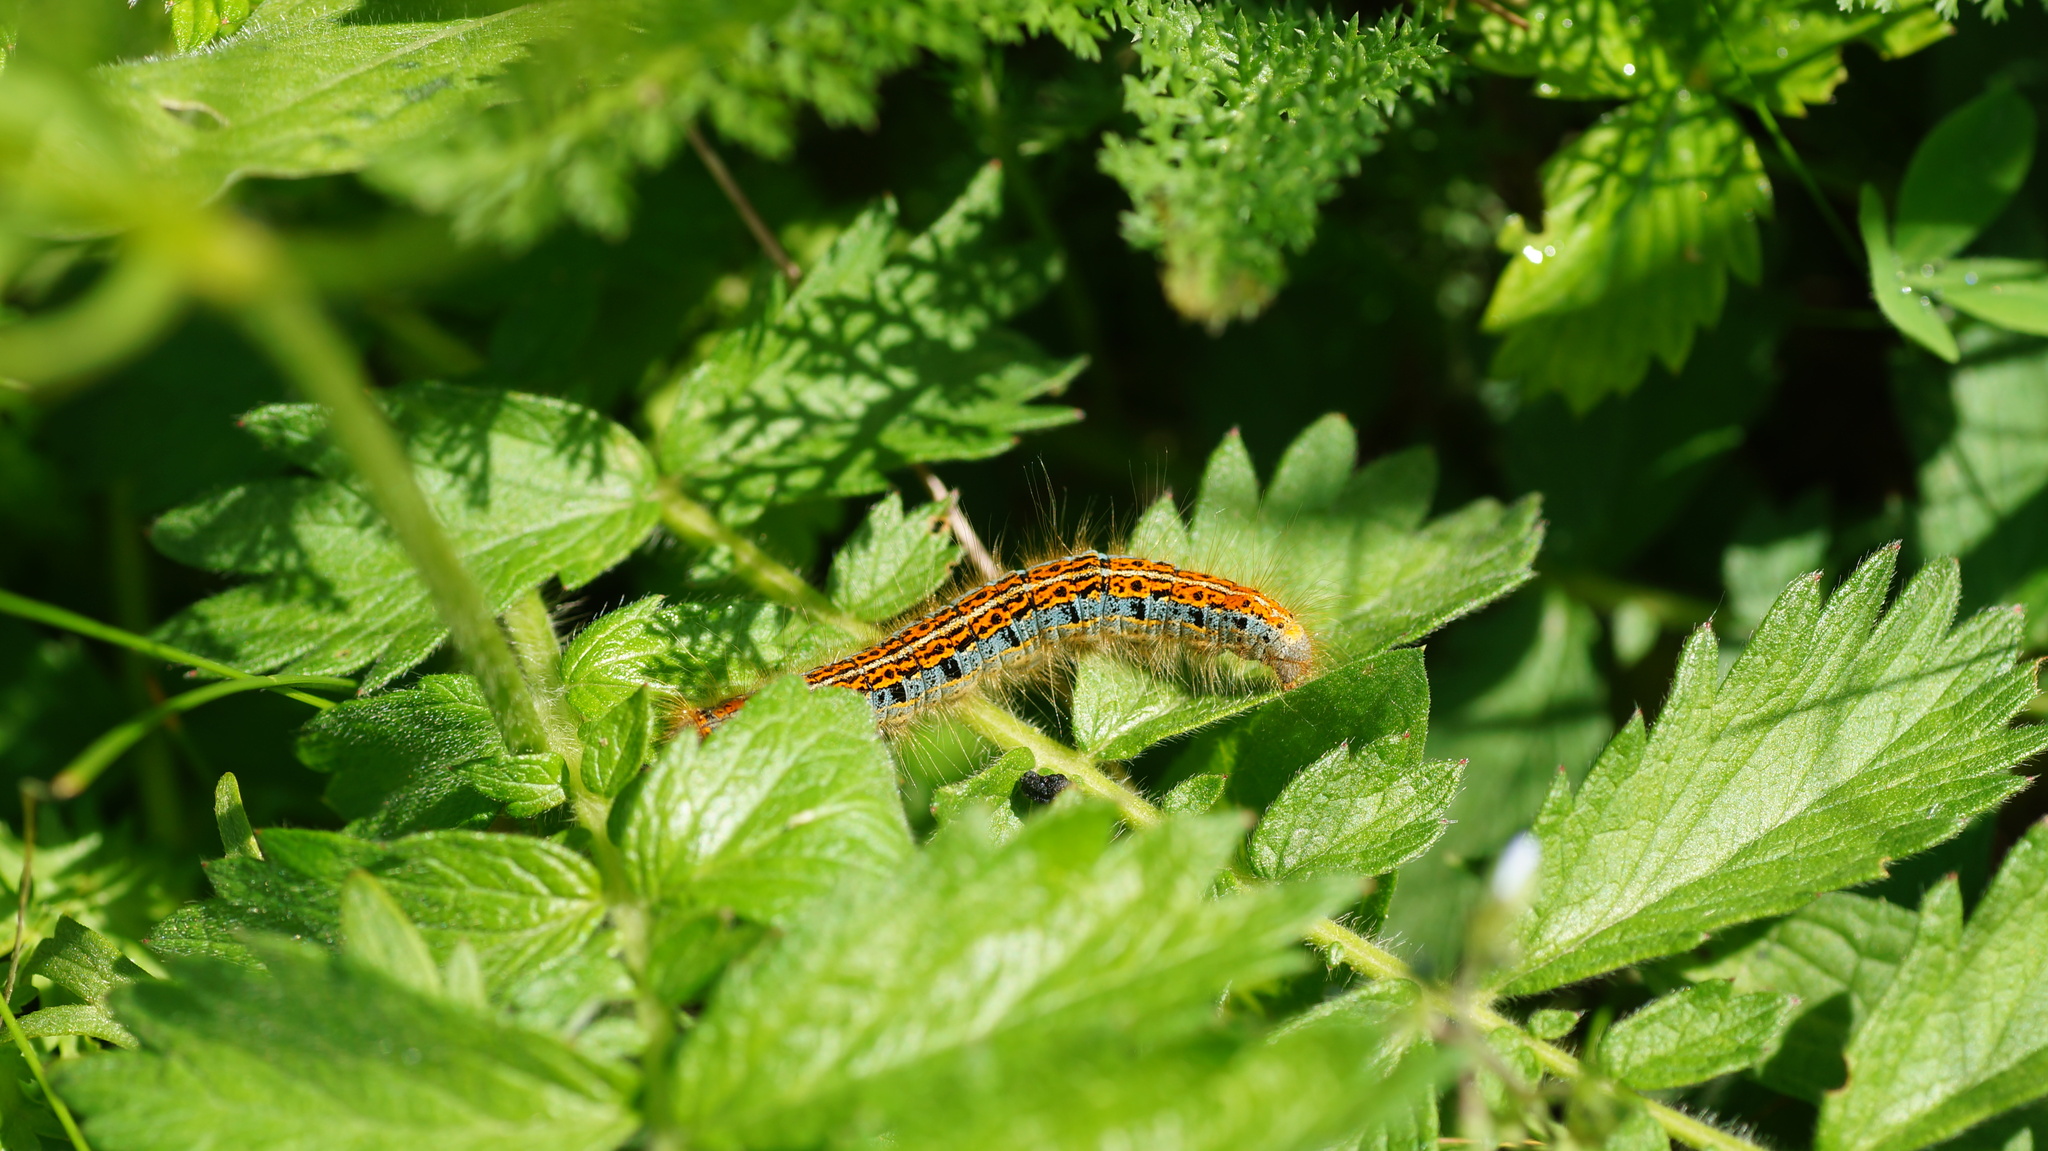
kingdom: Animalia
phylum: Arthropoda
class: Insecta
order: Lepidoptera
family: Lasiocampidae
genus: Malacosoma
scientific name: Malacosoma castrense
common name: Ground lackey
